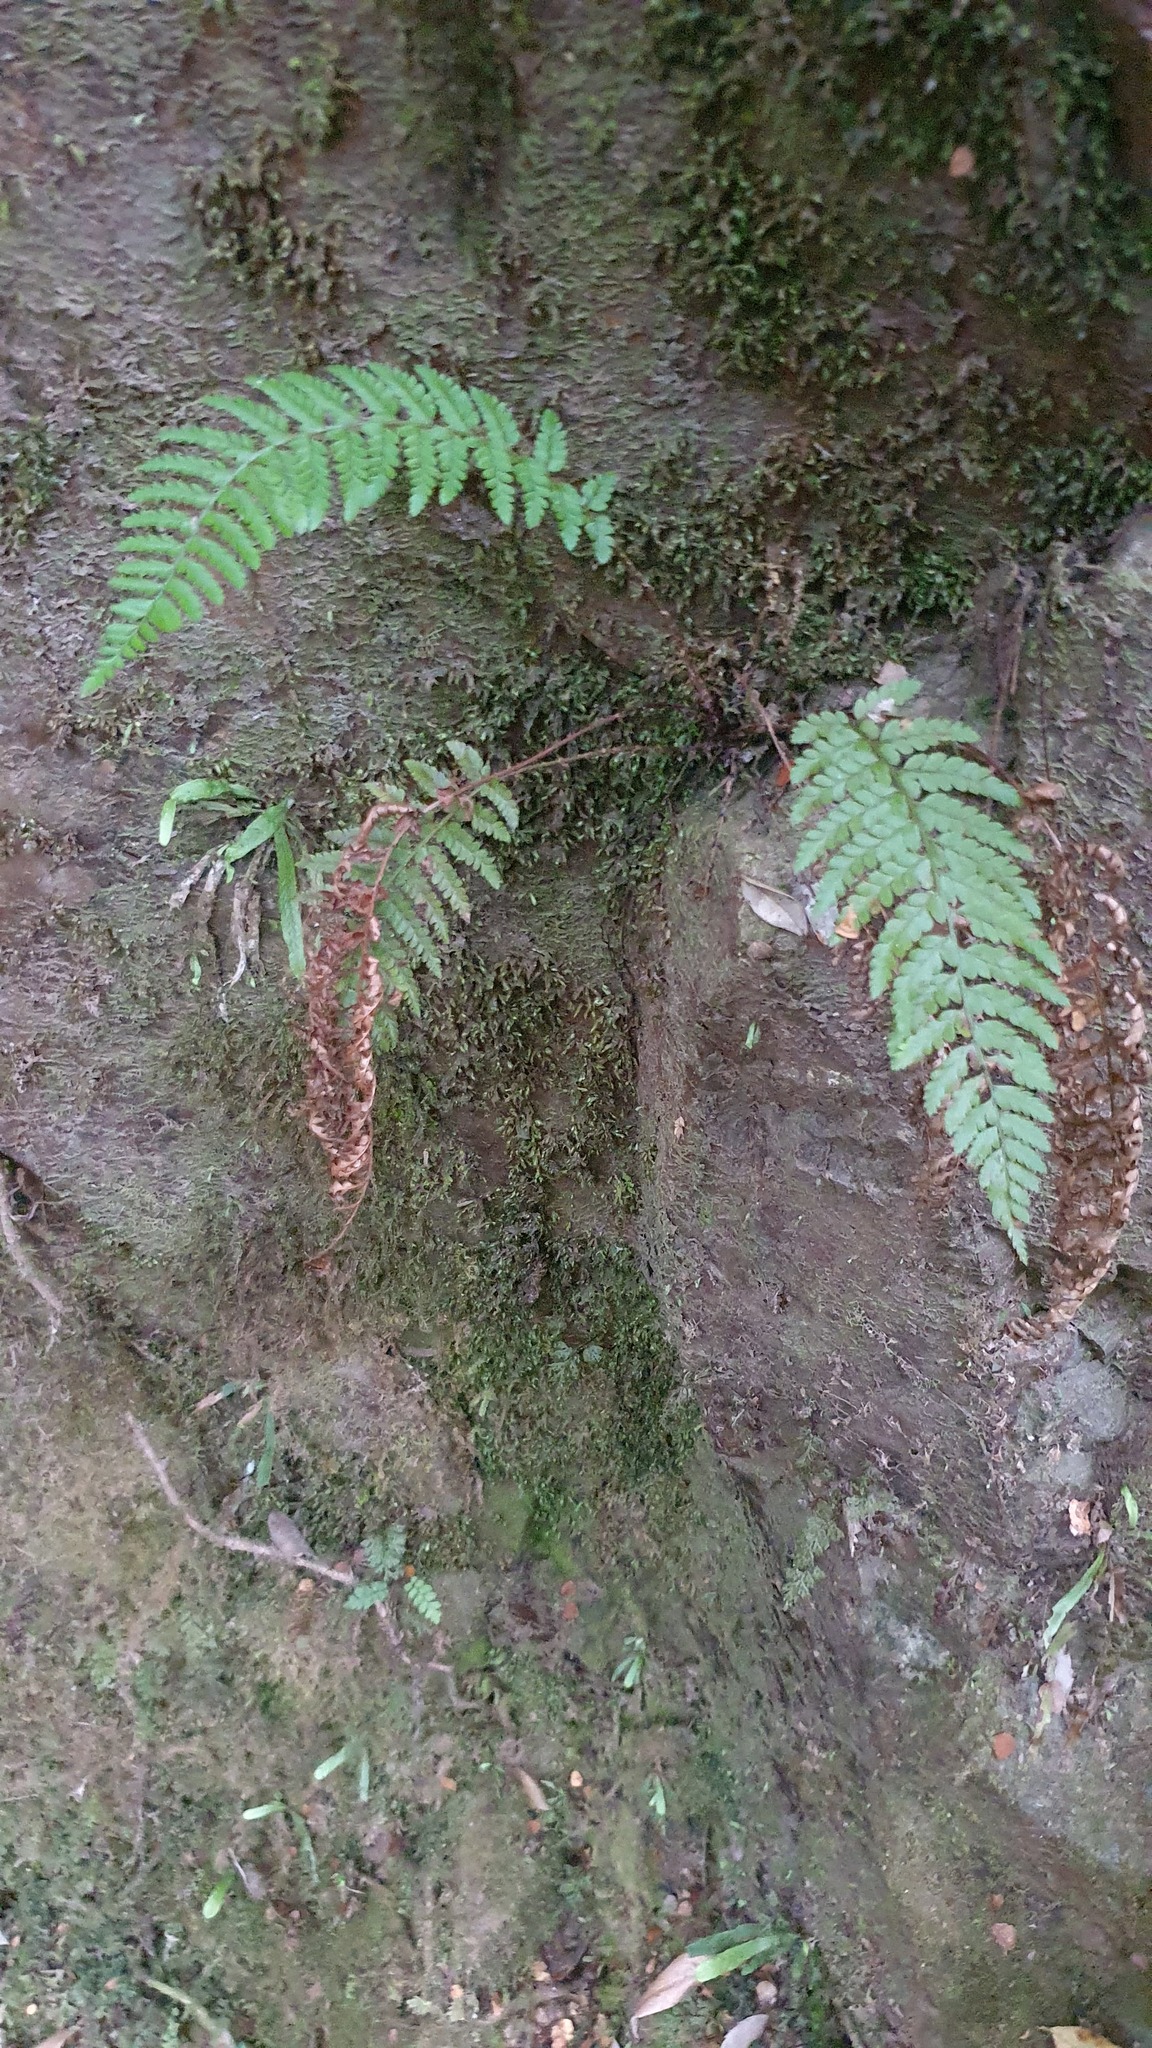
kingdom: Plantae
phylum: Tracheophyta
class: Polypodiopsida
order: Polypodiales
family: Dryopteridaceae
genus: Polystichum
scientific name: Polystichum proliferum
